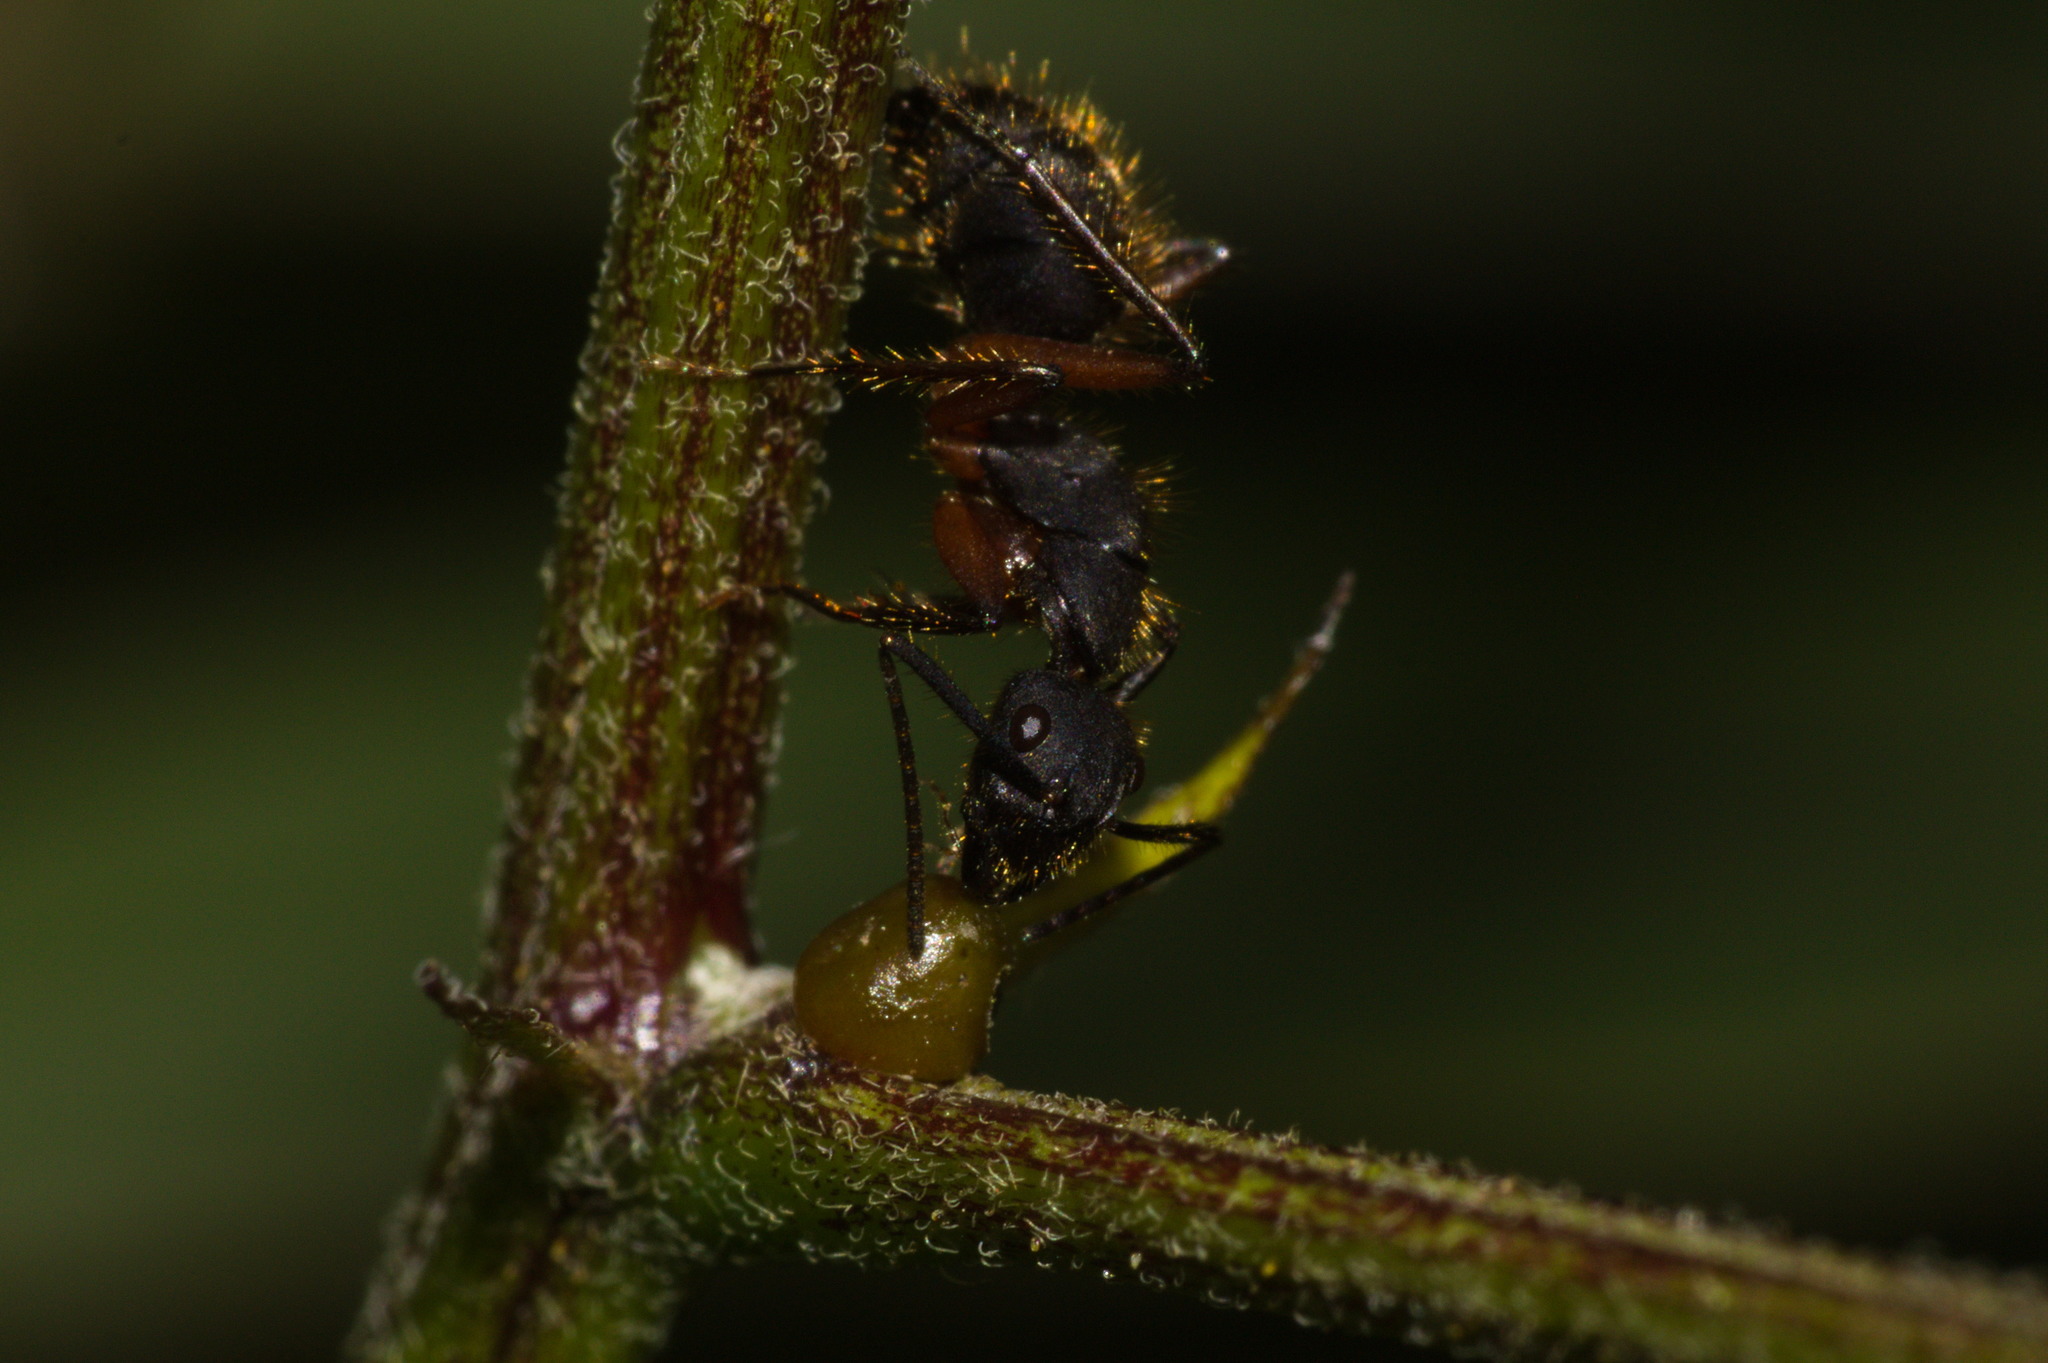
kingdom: Animalia
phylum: Arthropoda
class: Insecta
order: Hymenoptera
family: Formicidae
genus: Camponotus
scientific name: Camponotus rufipes
